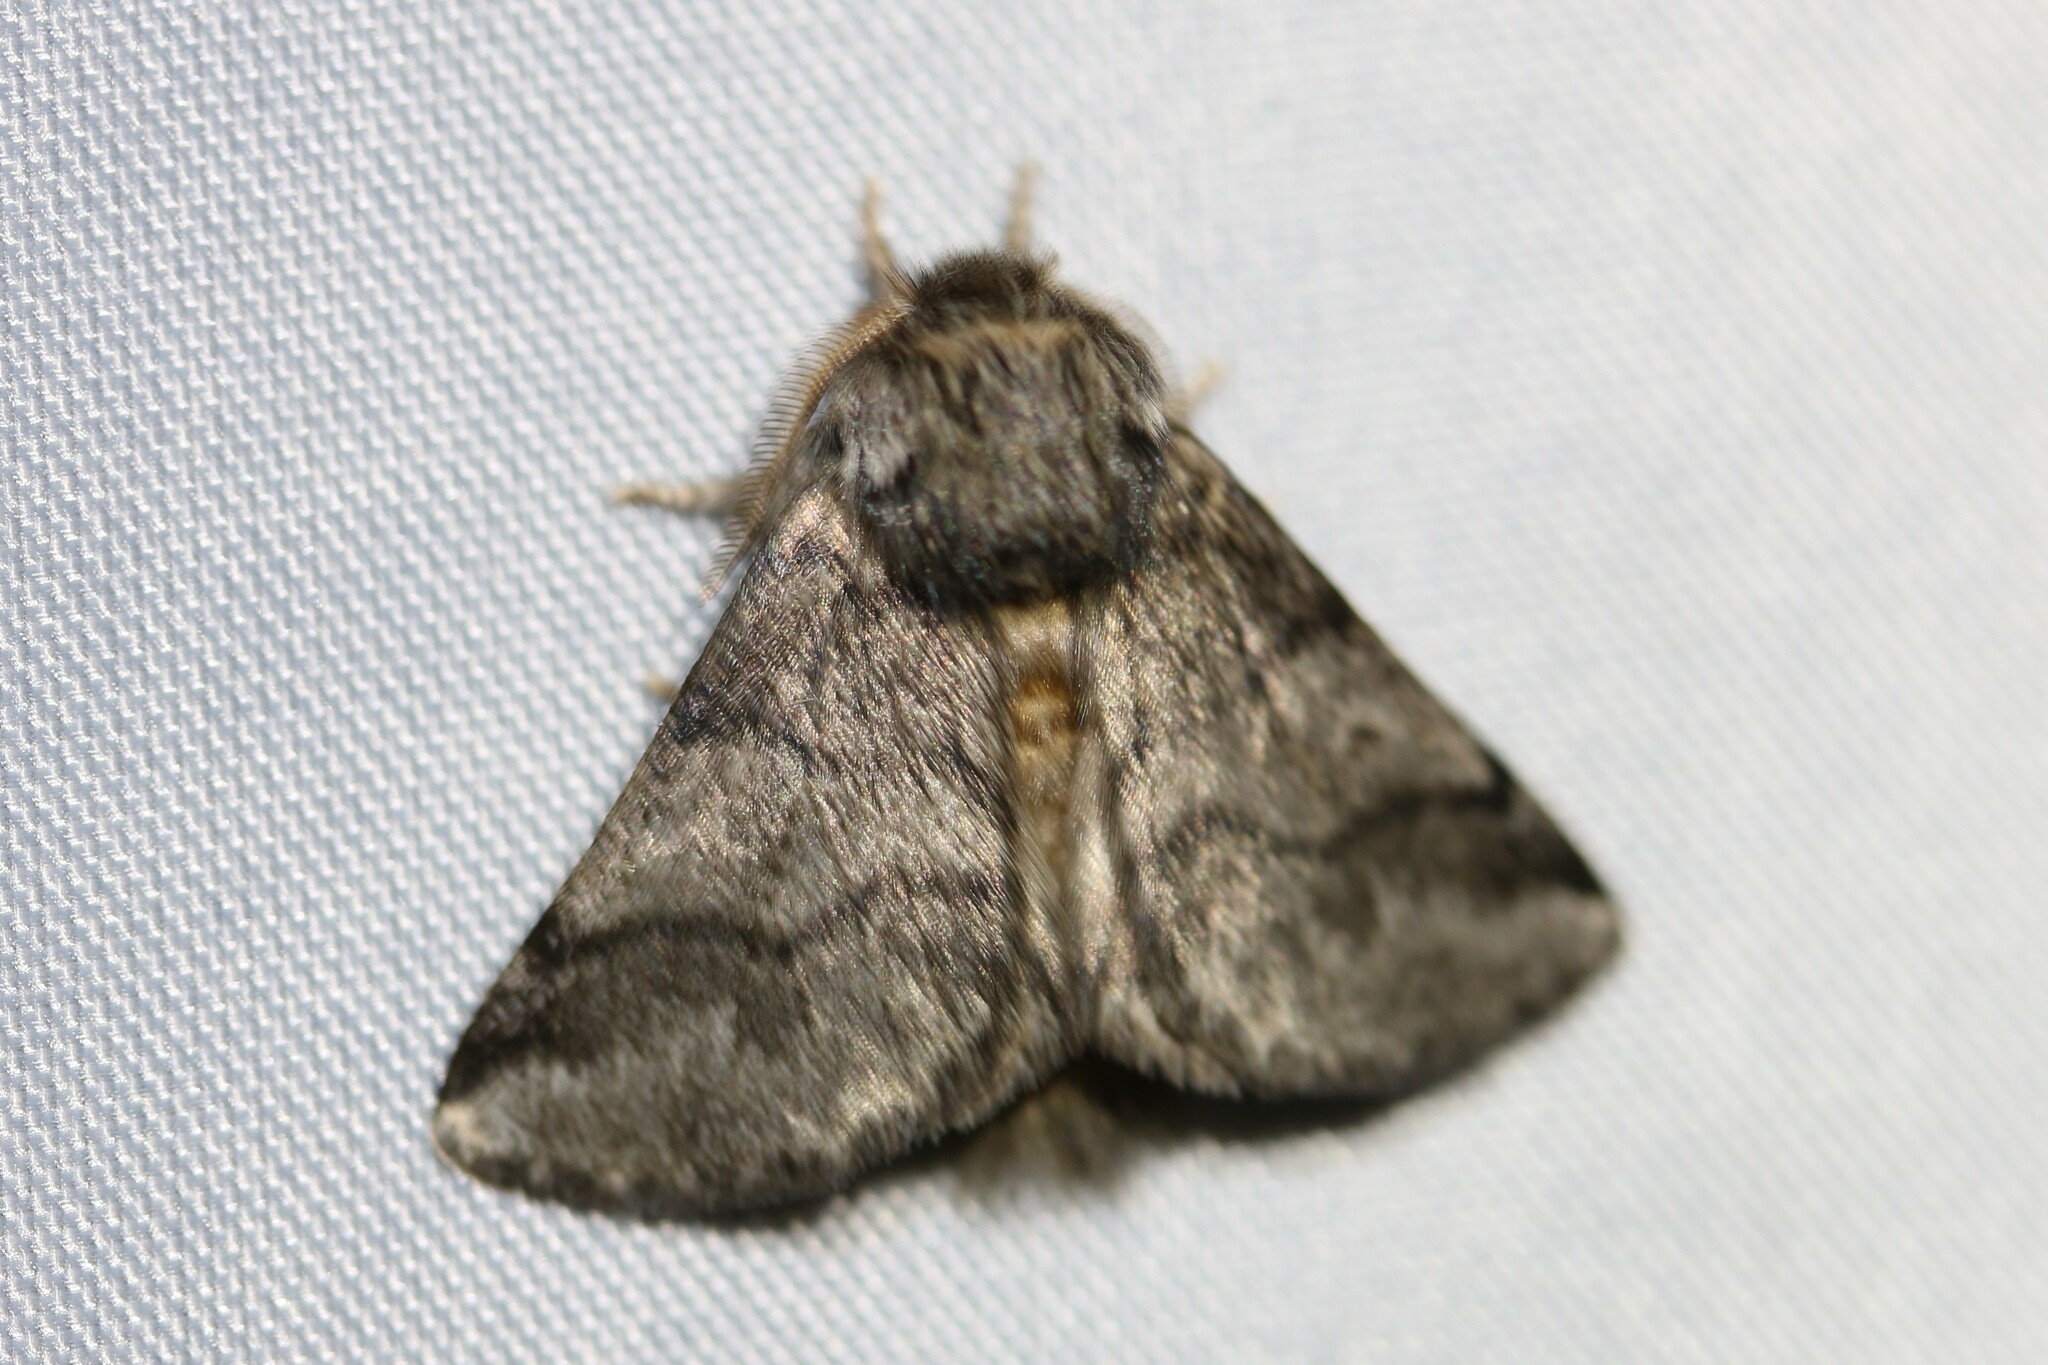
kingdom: Animalia
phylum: Arthropoda
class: Insecta
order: Lepidoptera
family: Notodontidae
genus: Thaumetopoea
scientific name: Thaumetopoea processionea
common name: Oak processionea
